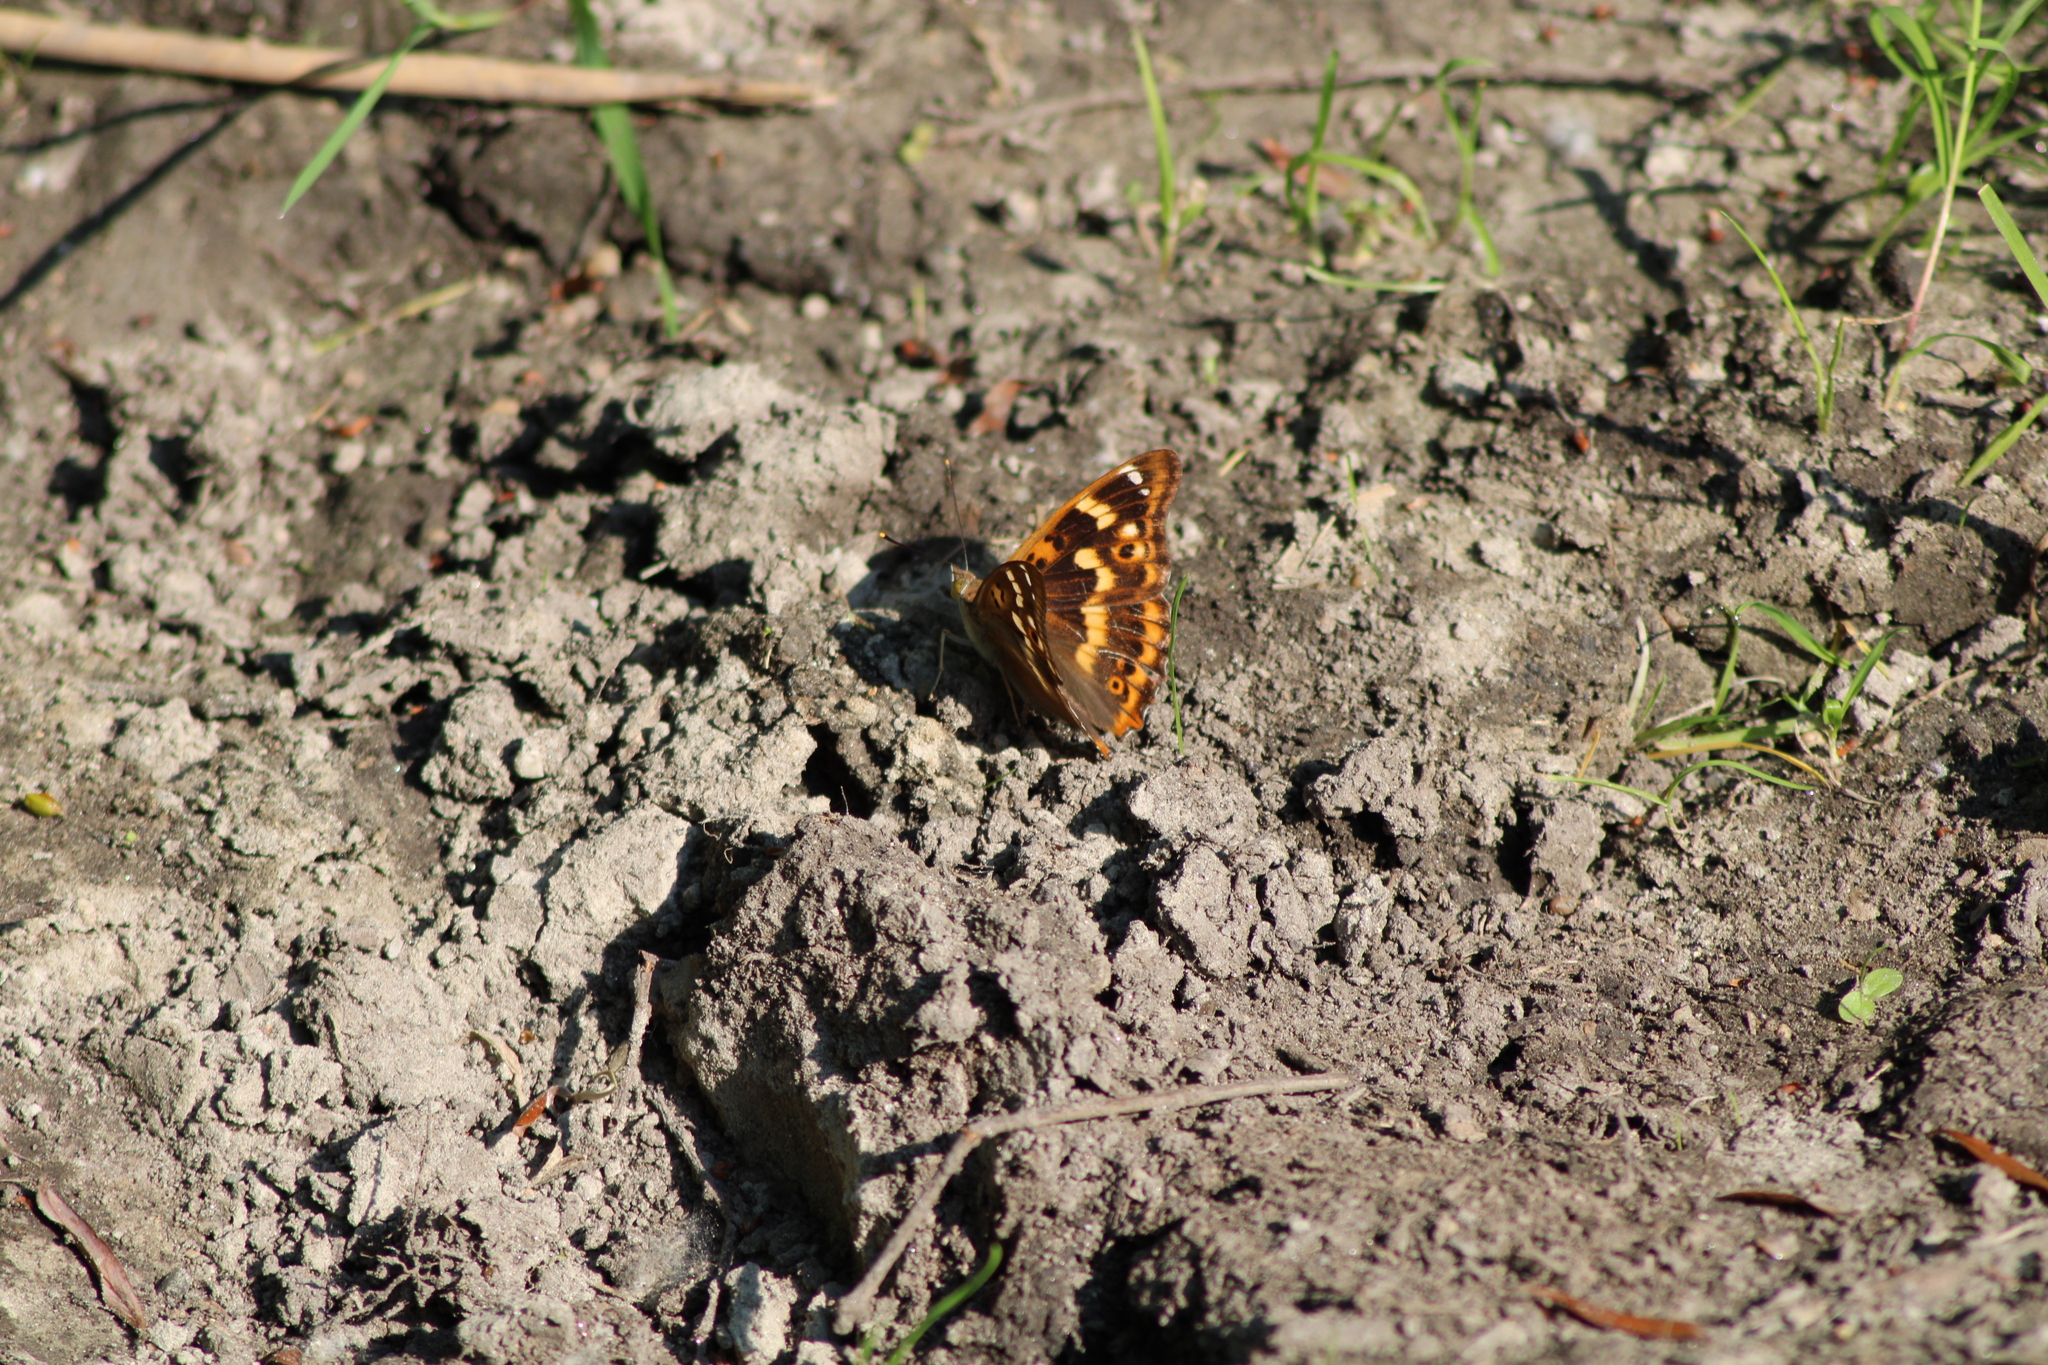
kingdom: Animalia
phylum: Arthropoda
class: Insecta
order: Lepidoptera
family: Nymphalidae
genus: Apatura
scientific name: Apatura ilia
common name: Lesser purple emperor
